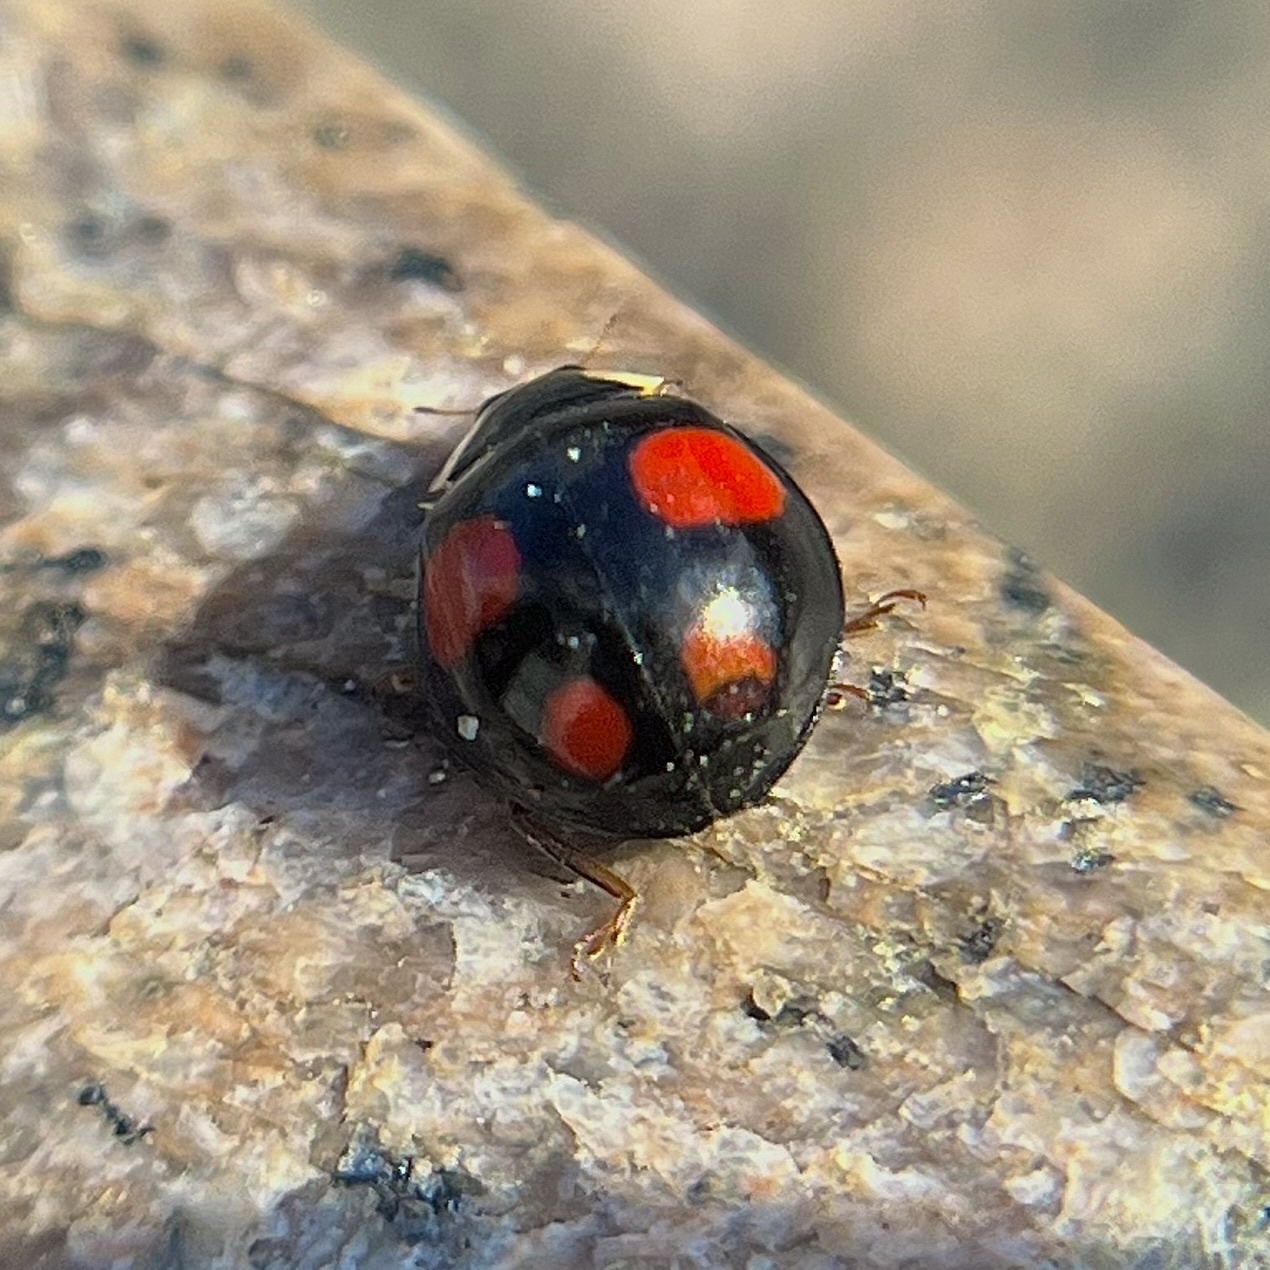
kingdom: Animalia
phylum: Arthropoda
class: Insecta
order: Coleoptera
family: Coccinellidae
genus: Harmonia
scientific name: Harmonia axyridis
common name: Harlequin ladybird
